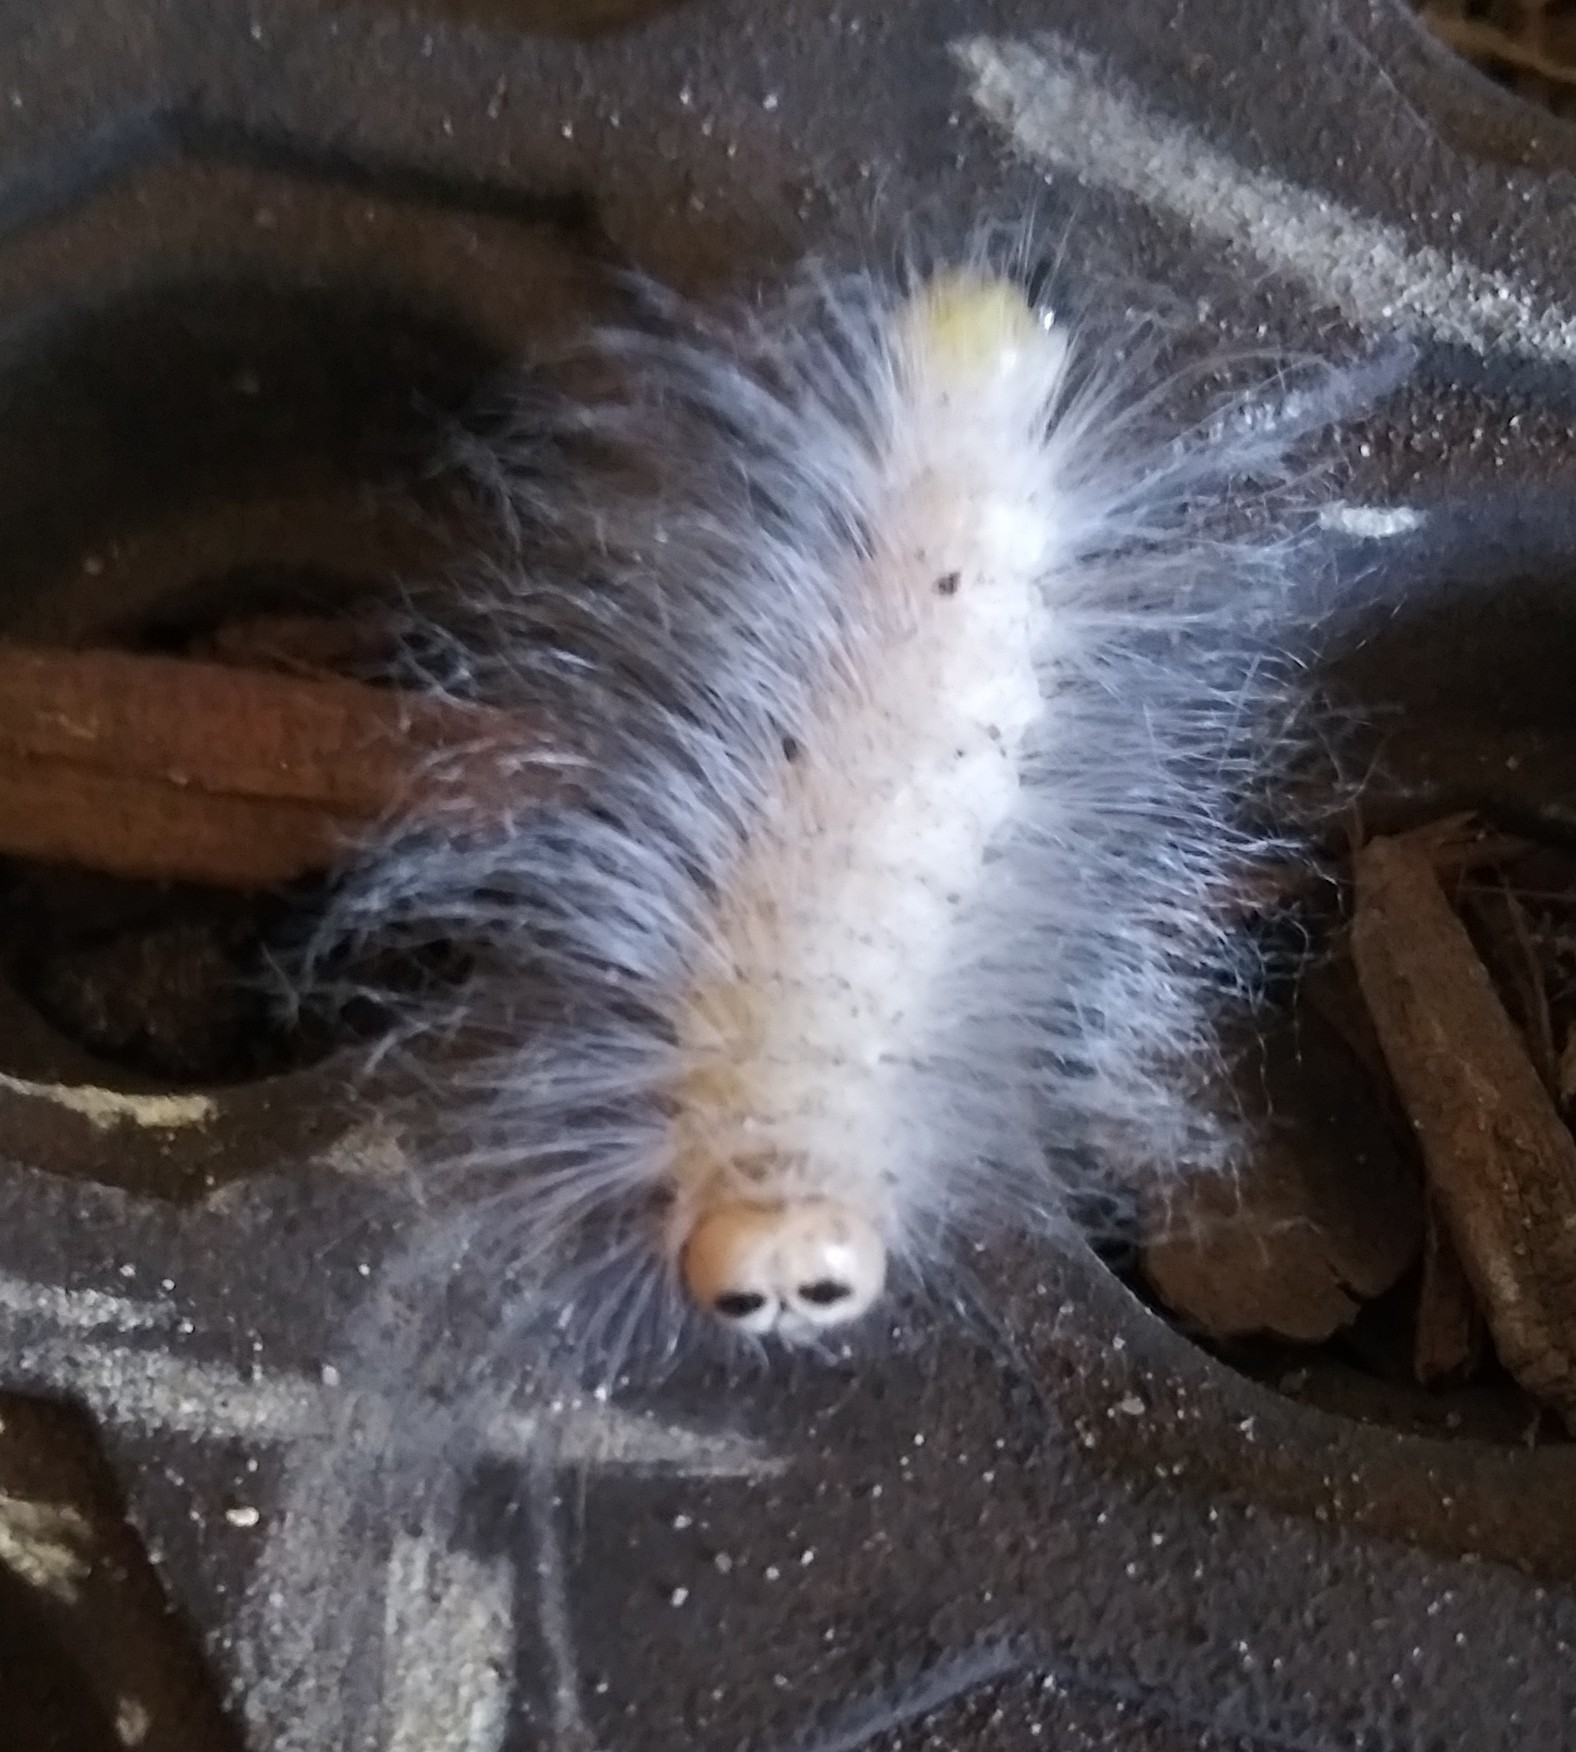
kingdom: Animalia
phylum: Arthropoda
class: Insecta
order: Lepidoptera
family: Noctuidae
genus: Charadra
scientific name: Charadra deridens
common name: Marbled tuffet
